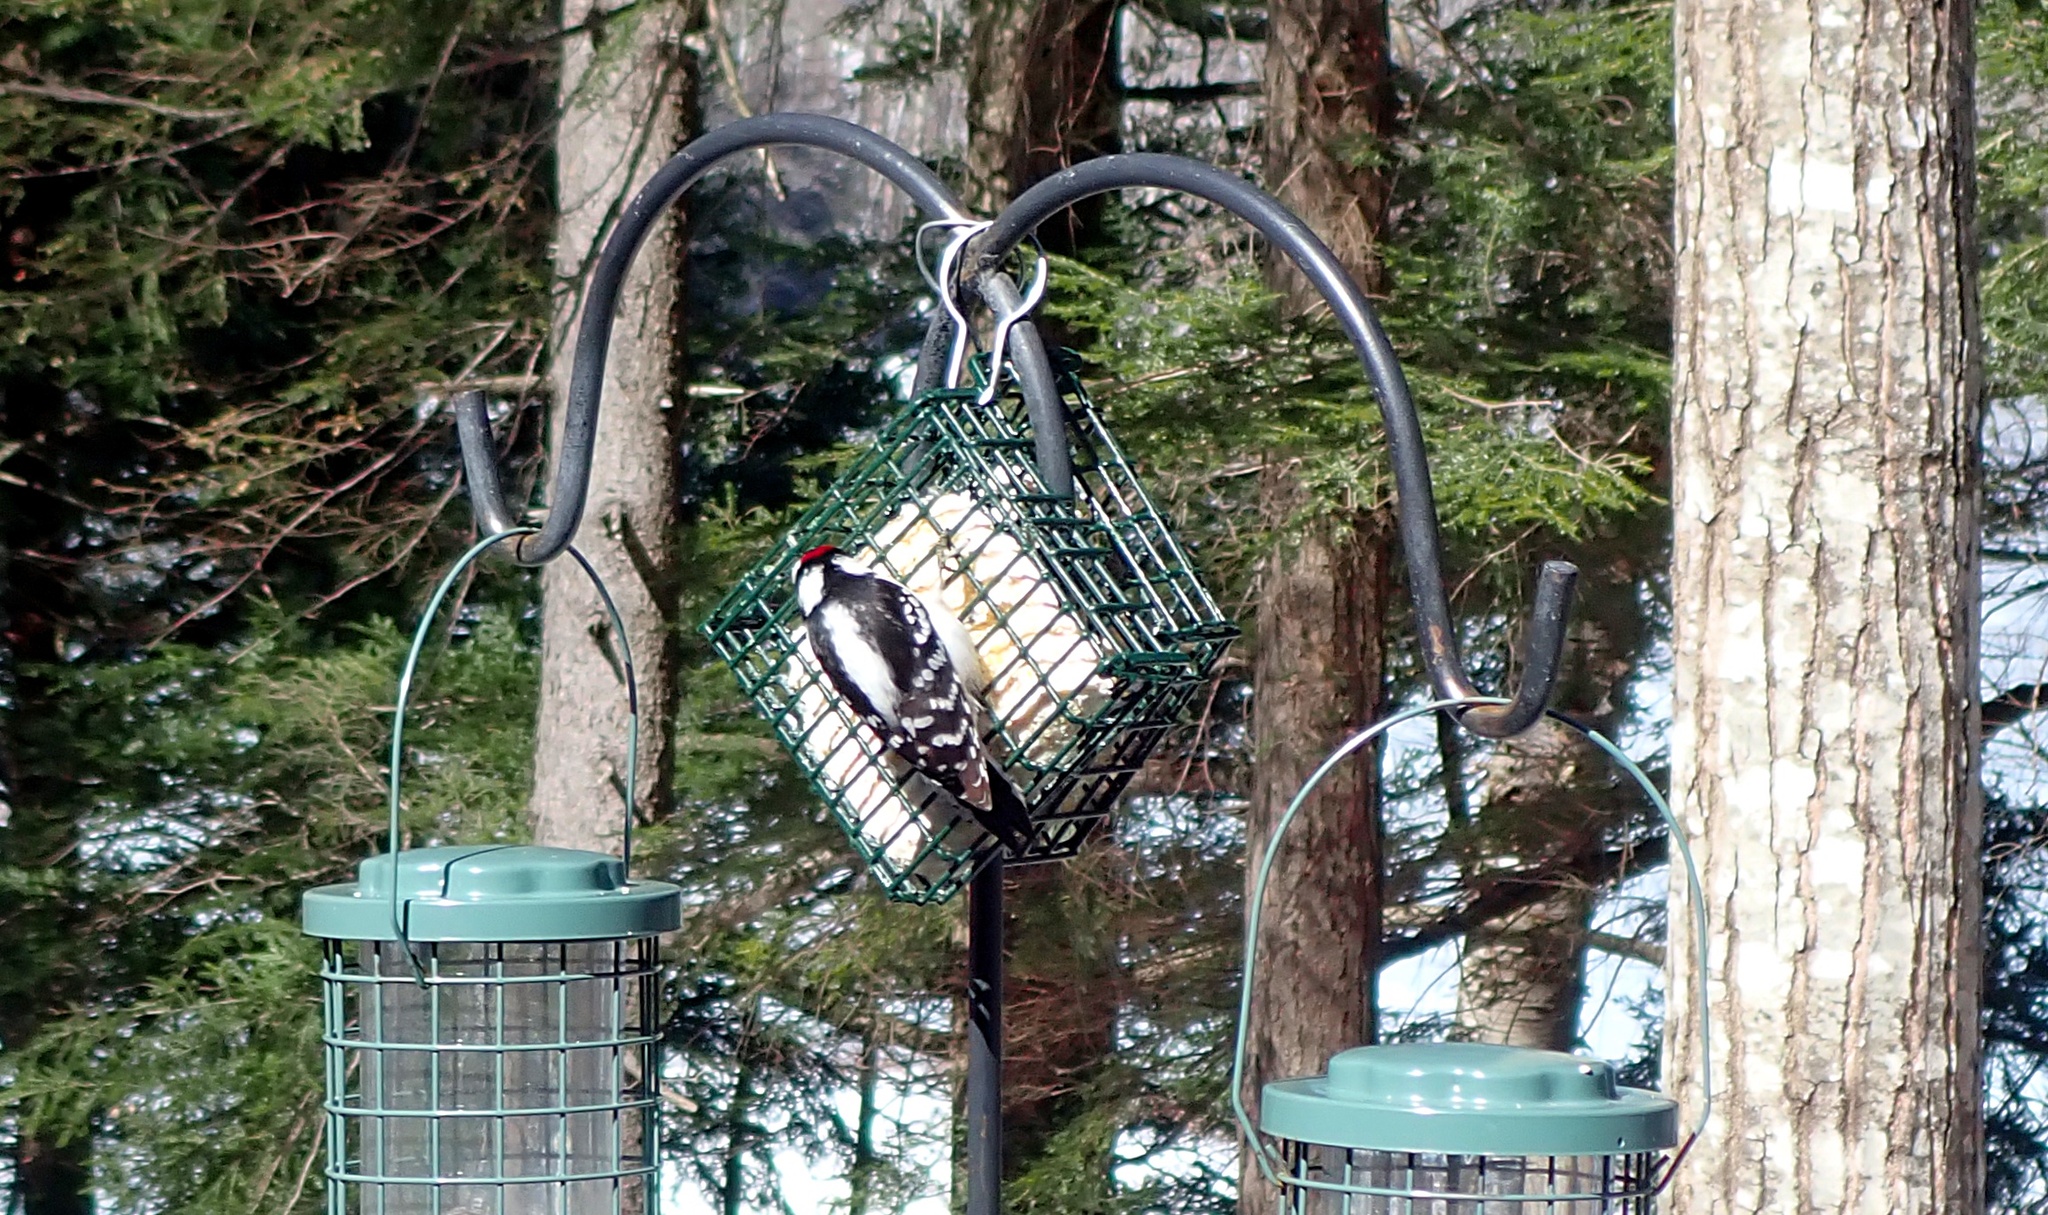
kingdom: Animalia
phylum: Chordata
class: Aves
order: Piciformes
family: Picidae
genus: Dryobates
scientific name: Dryobates pubescens
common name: Downy woodpecker
